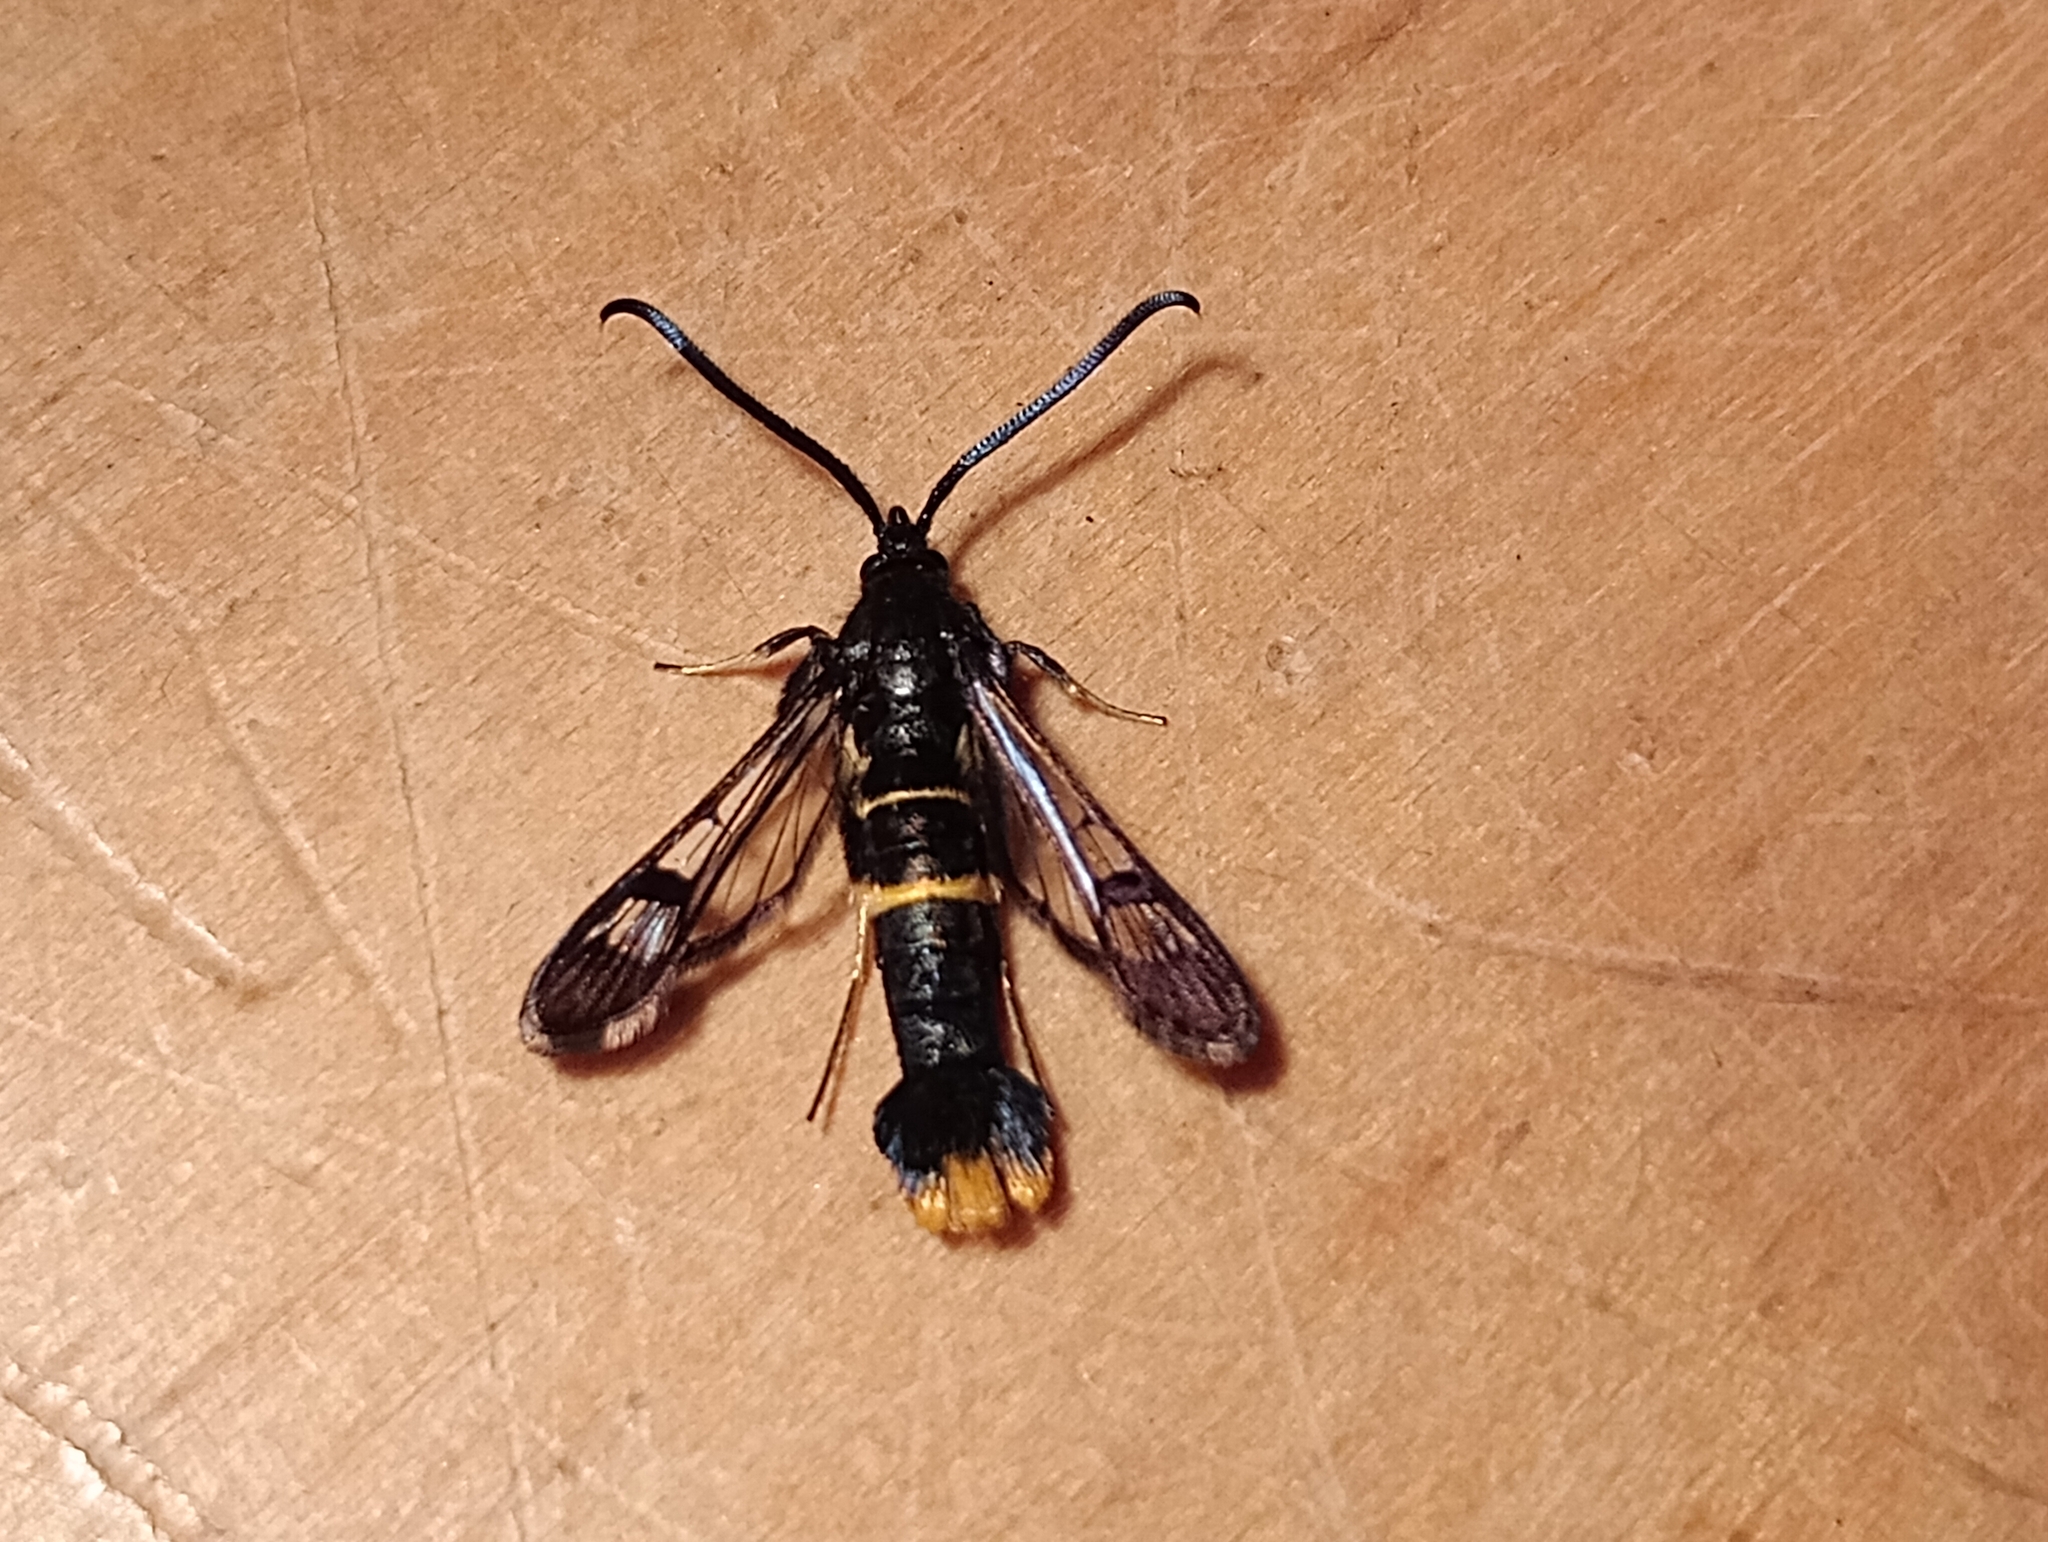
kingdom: Animalia
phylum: Arthropoda
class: Insecta
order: Lepidoptera
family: Sesiidae
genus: Synanthedon
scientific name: Synanthedon andrenaeformis
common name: Orange-tailed clearwing
